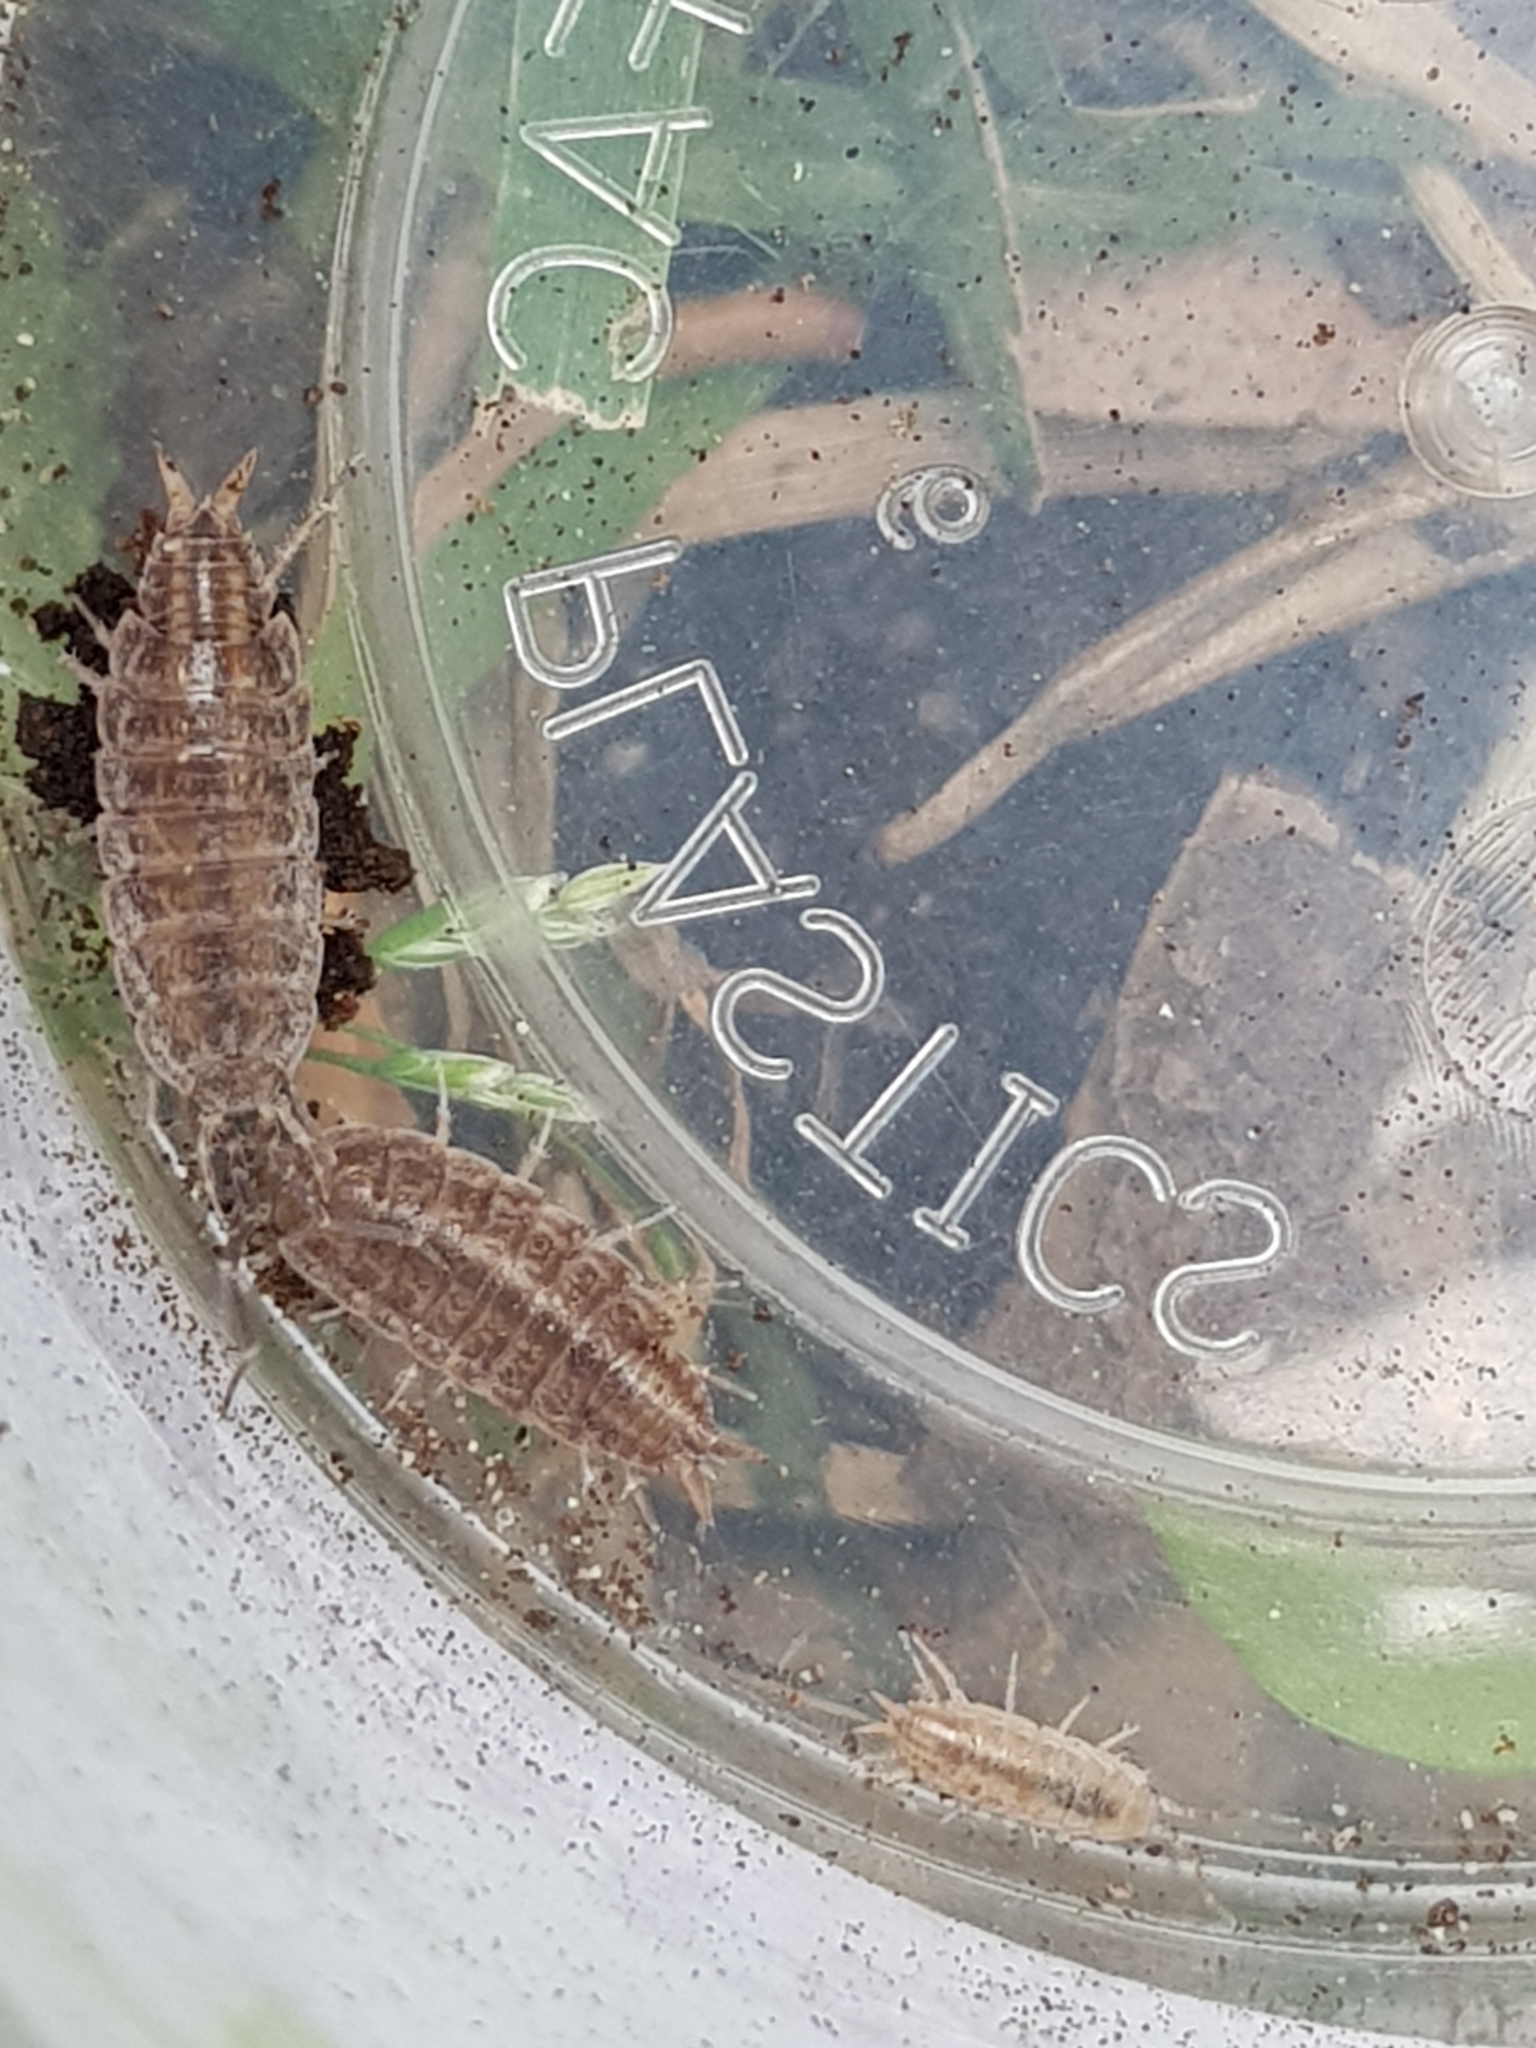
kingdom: Animalia
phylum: Arthropoda
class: Malacostraca
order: Isopoda
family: Porcellionidae
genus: Porcellionides
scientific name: Porcellionides sexfasciatus
